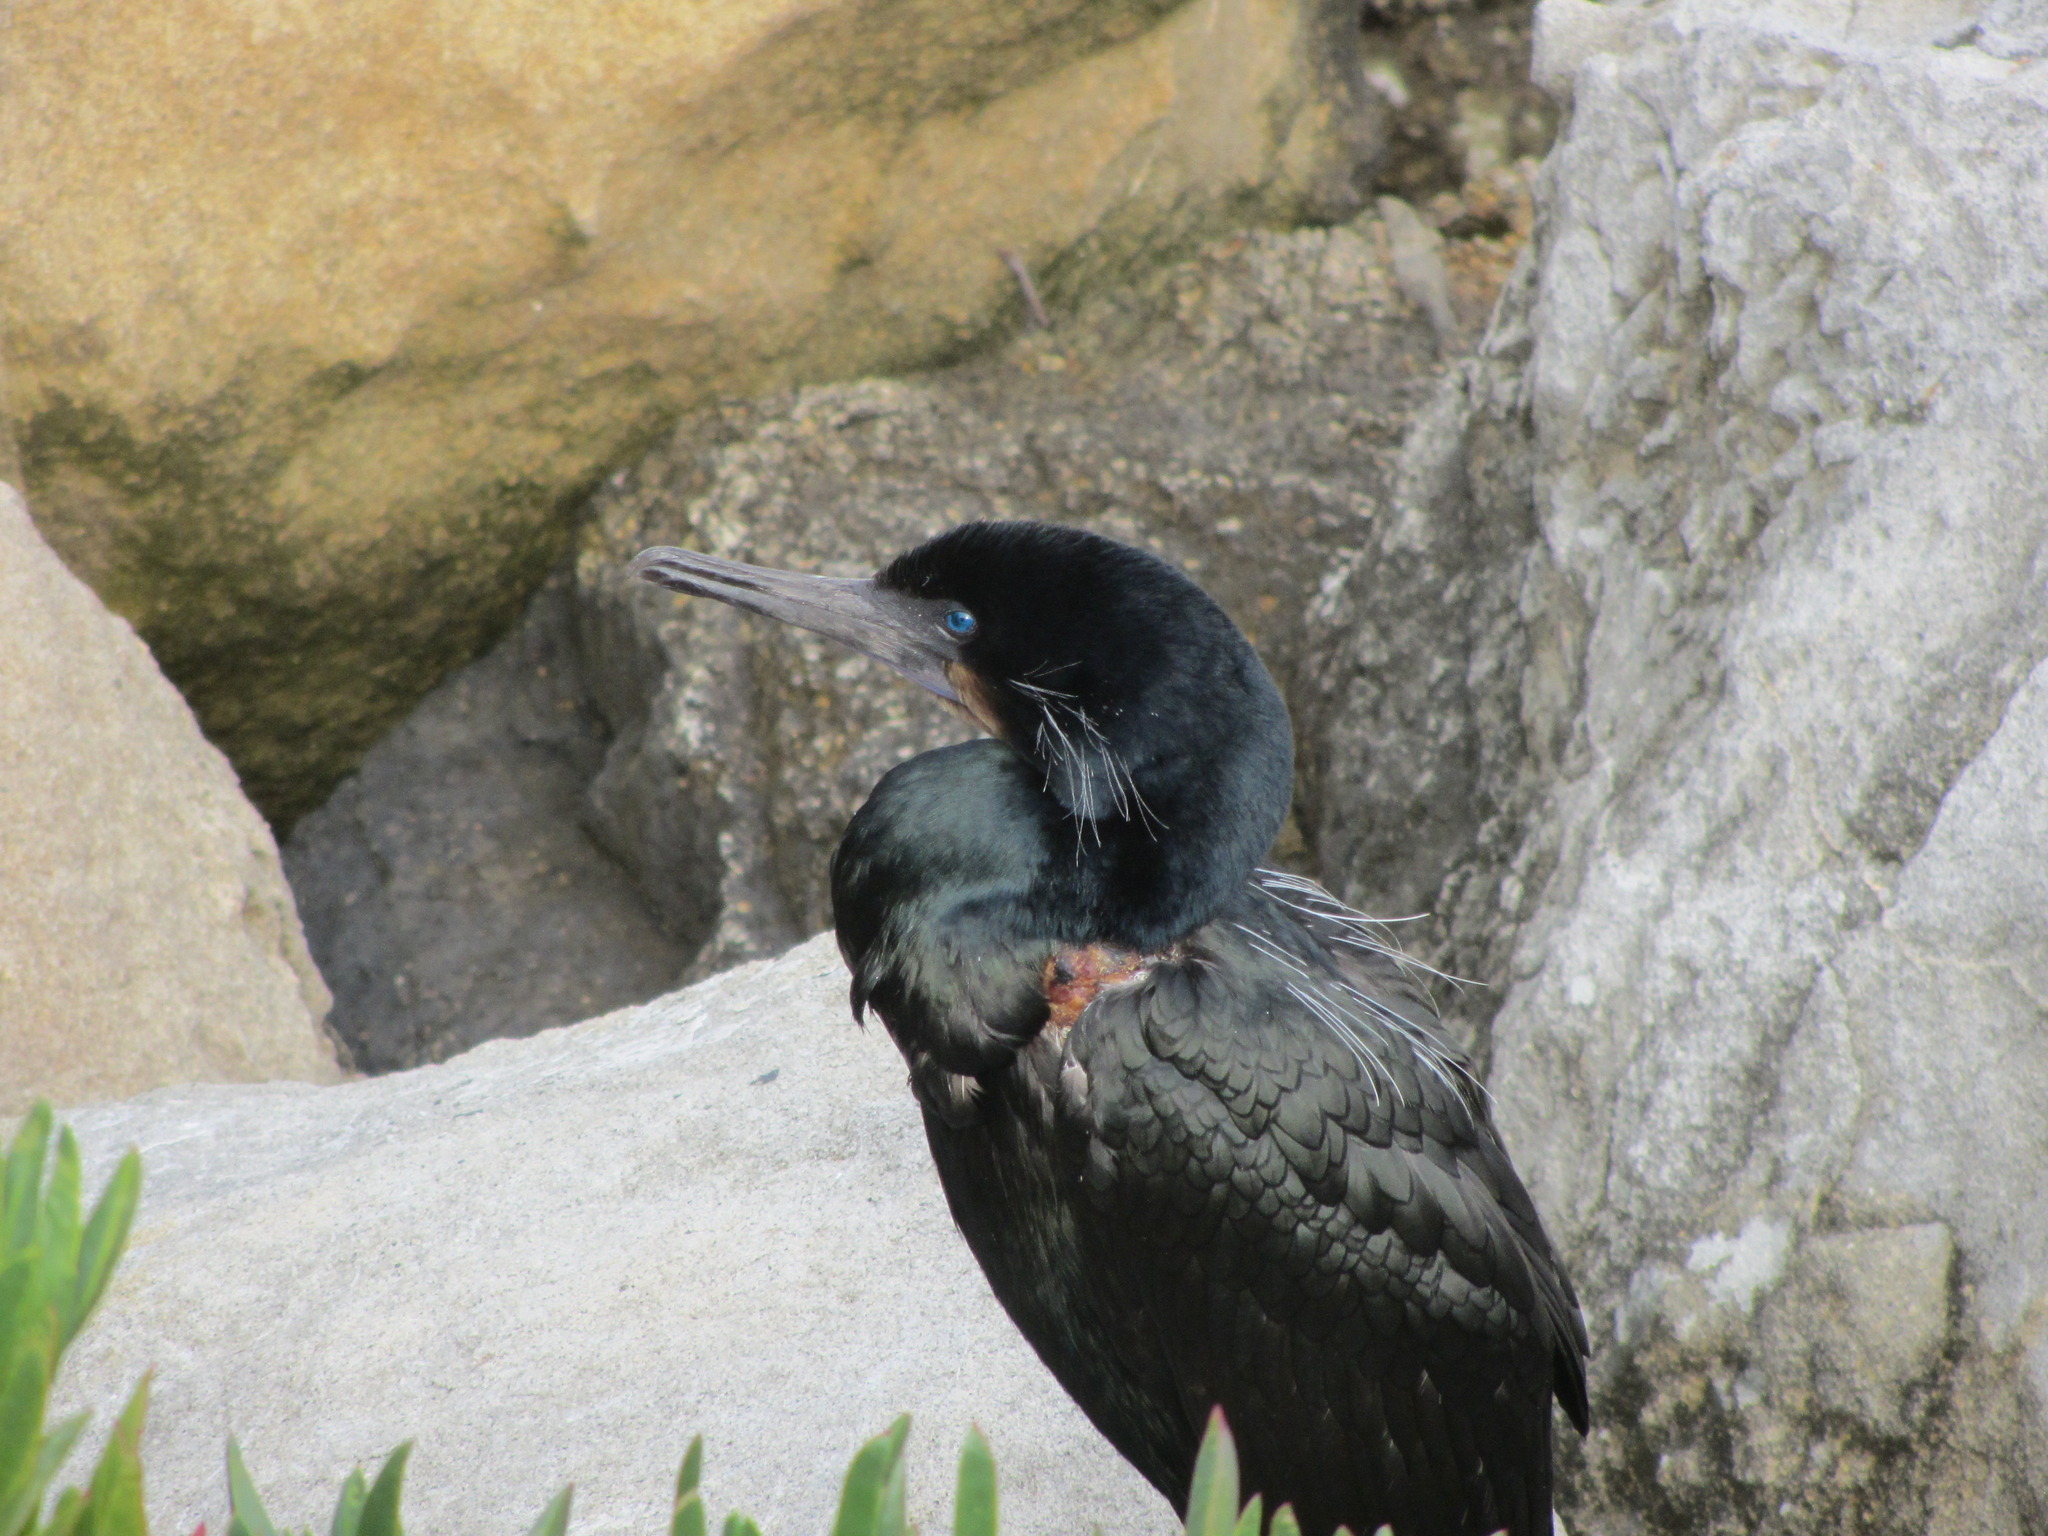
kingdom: Animalia
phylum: Chordata
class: Aves
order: Suliformes
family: Phalacrocoracidae
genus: Urile
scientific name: Urile penicillatus
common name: Brandt's cormorant
